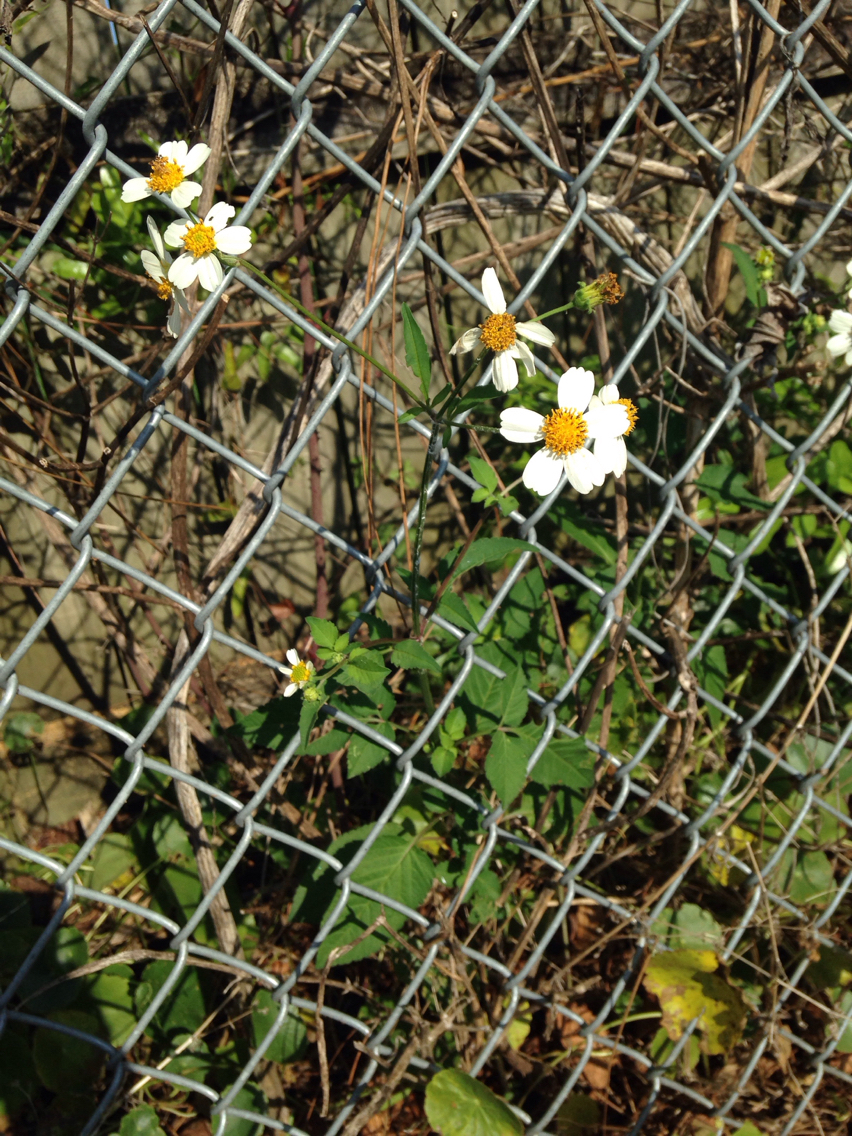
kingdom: Plantae
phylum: Tracheophyta
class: Magnoliopsida
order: Asterales
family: Asteraceae
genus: Bidens
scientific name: Bidens alba
